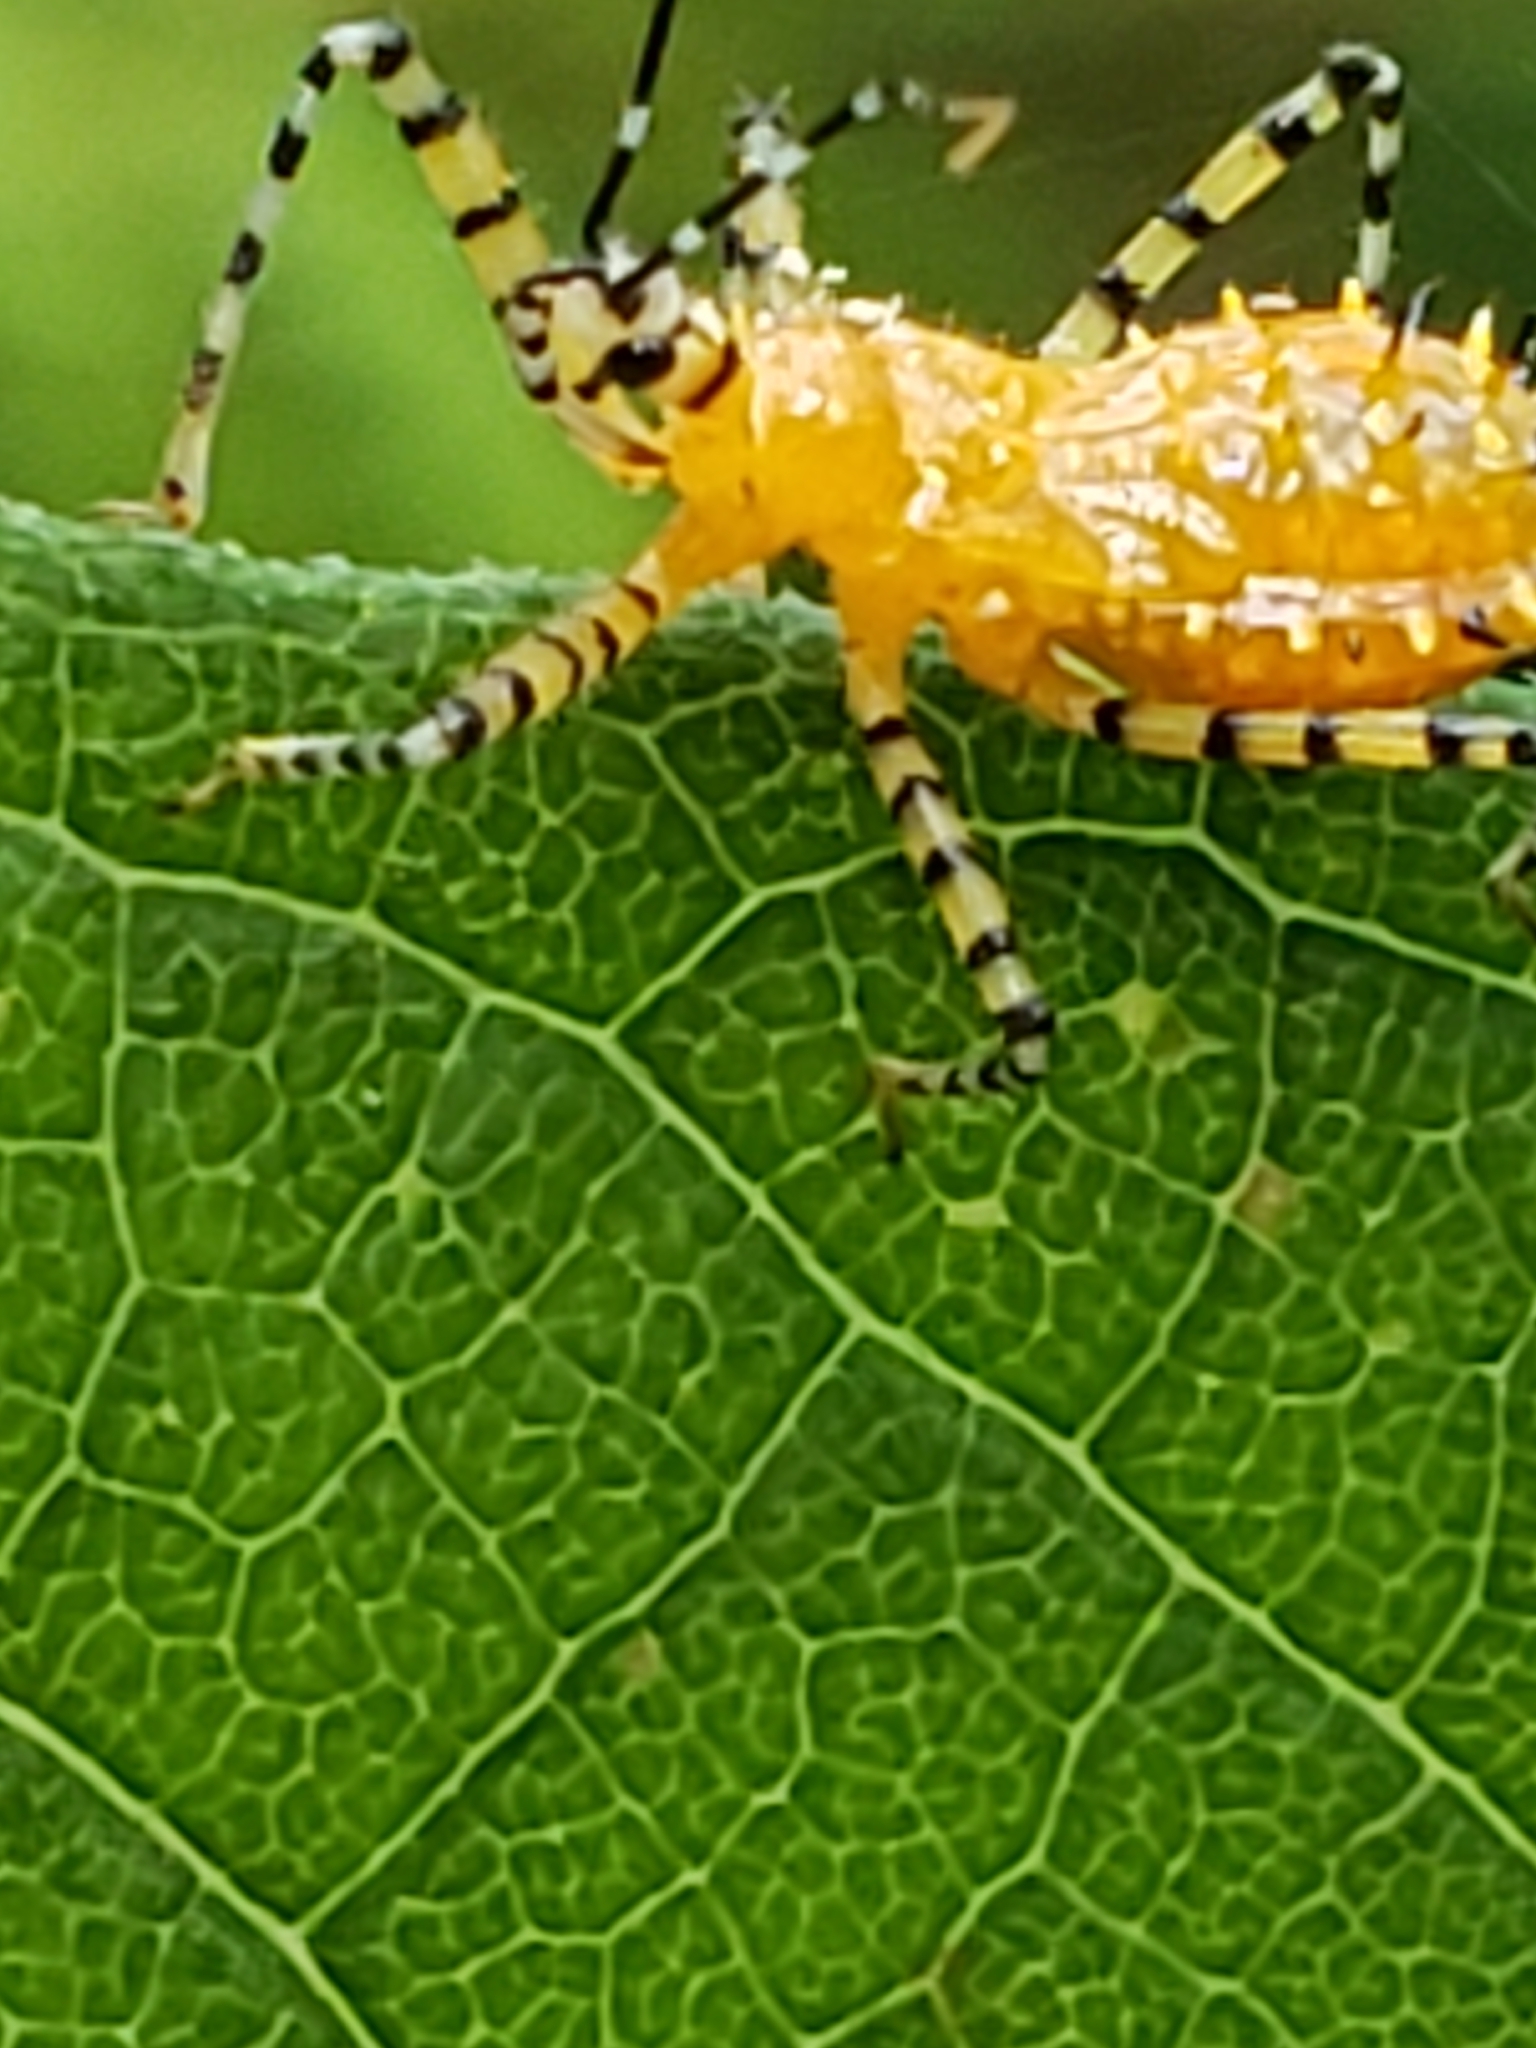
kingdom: Animalia
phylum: Arthropoda
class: Insecta
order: Hemiptera
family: Reduviidae
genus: Pselliopus
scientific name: Pselliopus barberi
